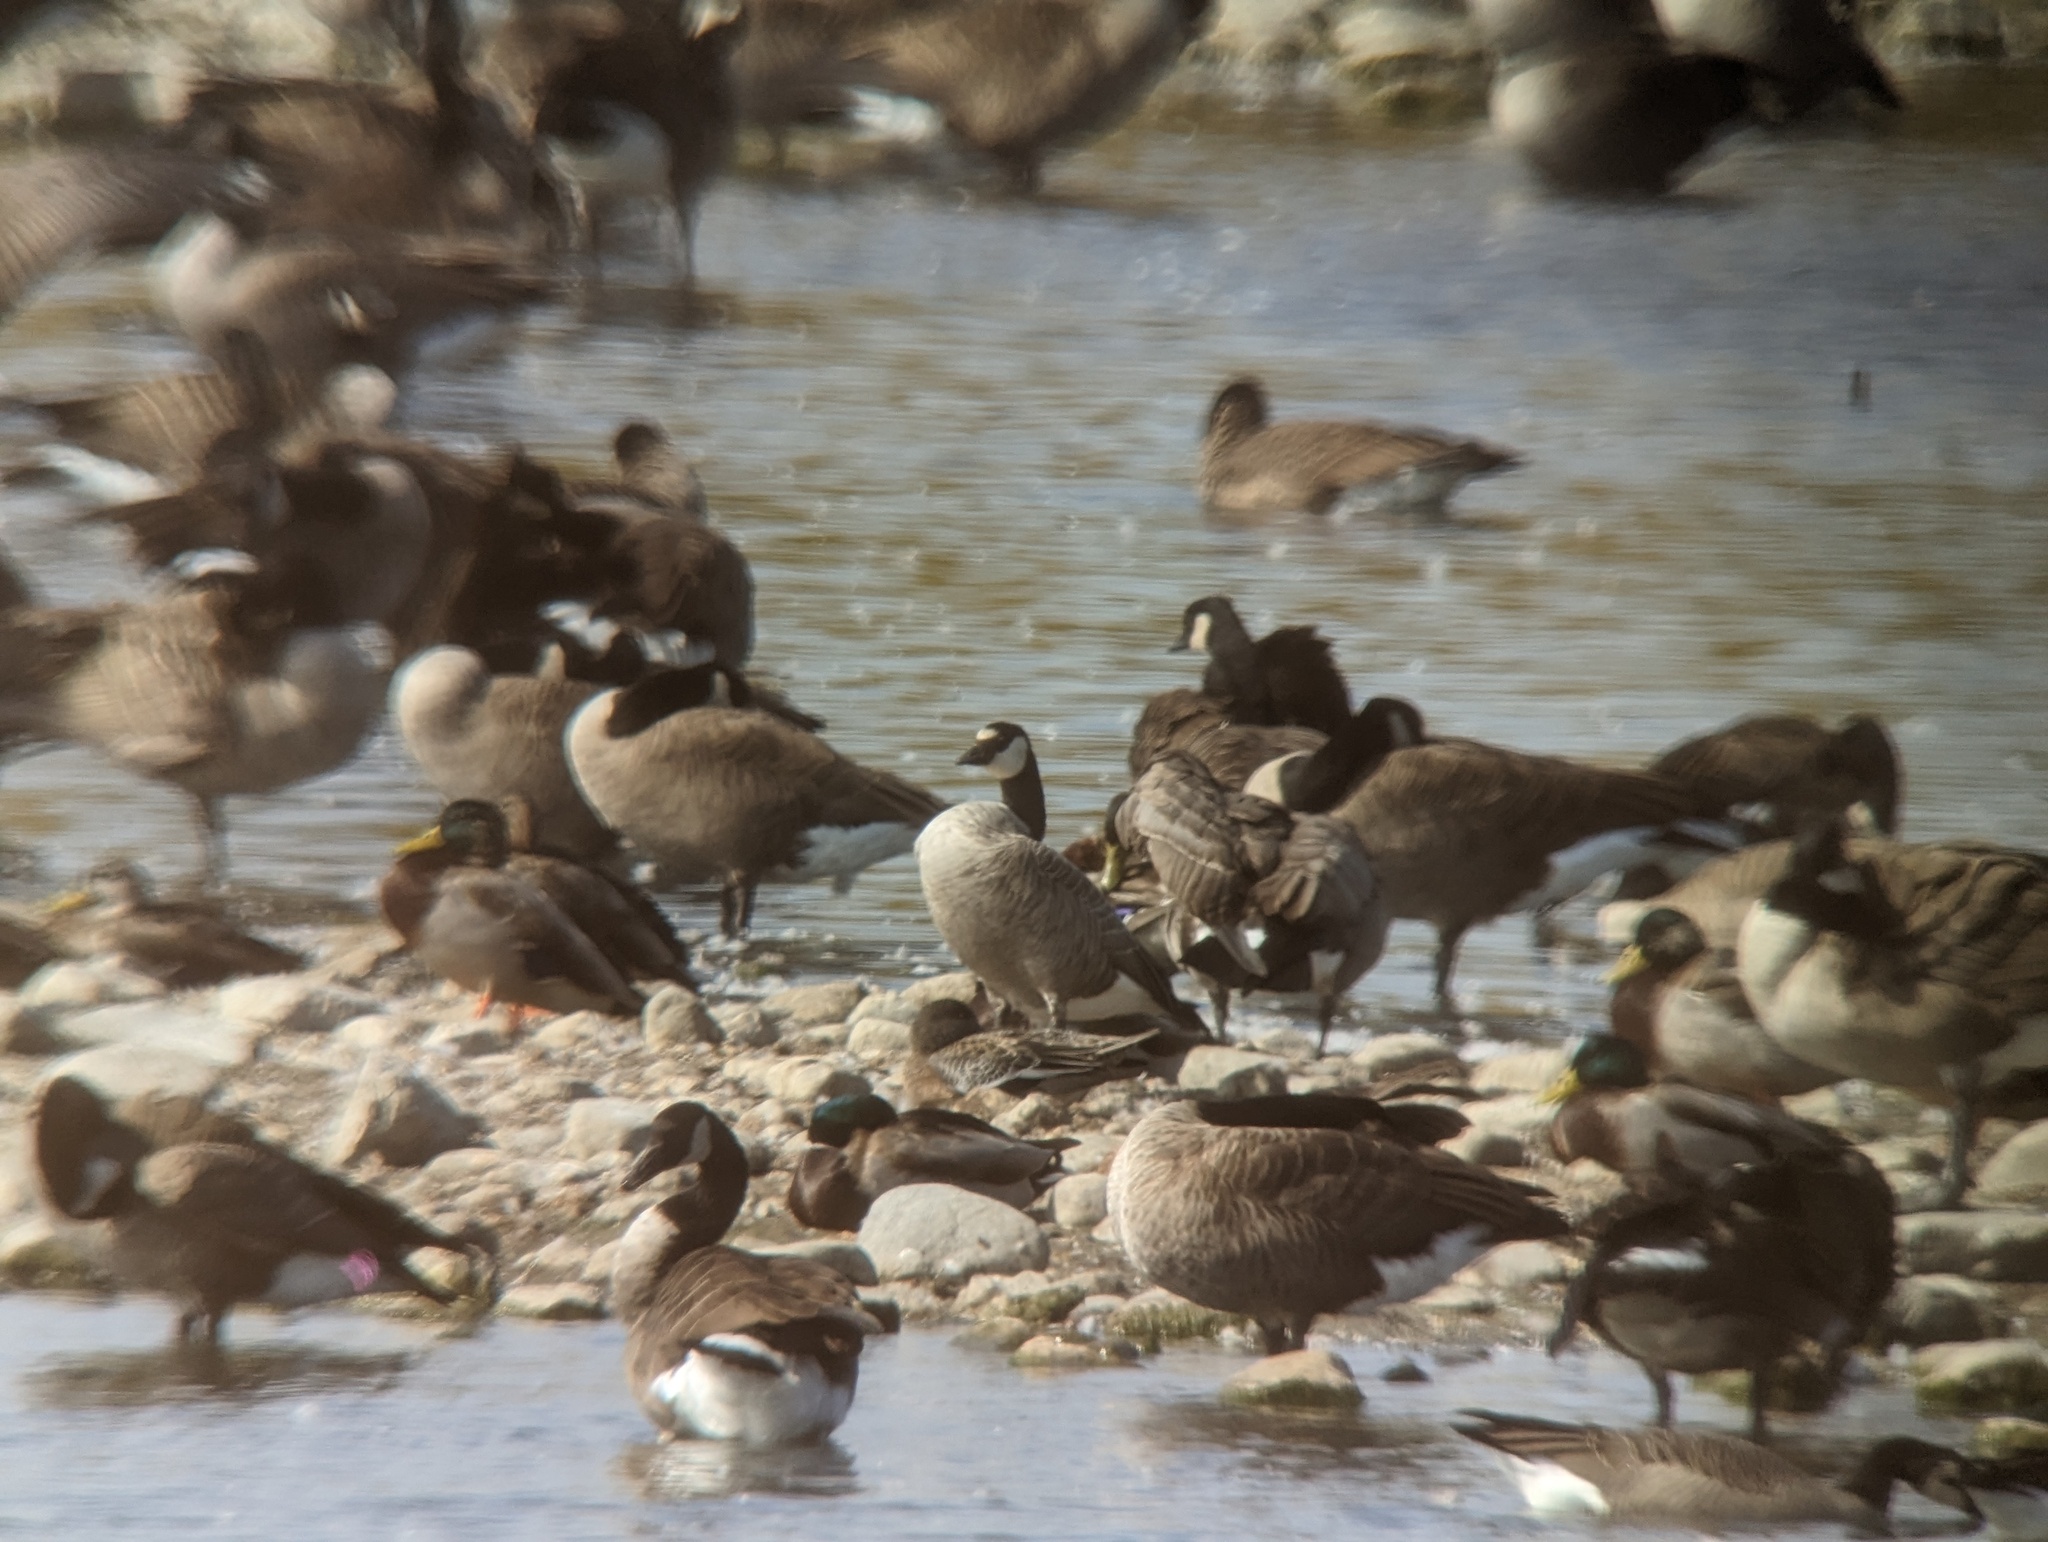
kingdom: Animalia
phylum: Chordata
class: Aves
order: Anseriformes
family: Anatidae
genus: Branta
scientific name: Branta canadensis
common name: Canada goose
